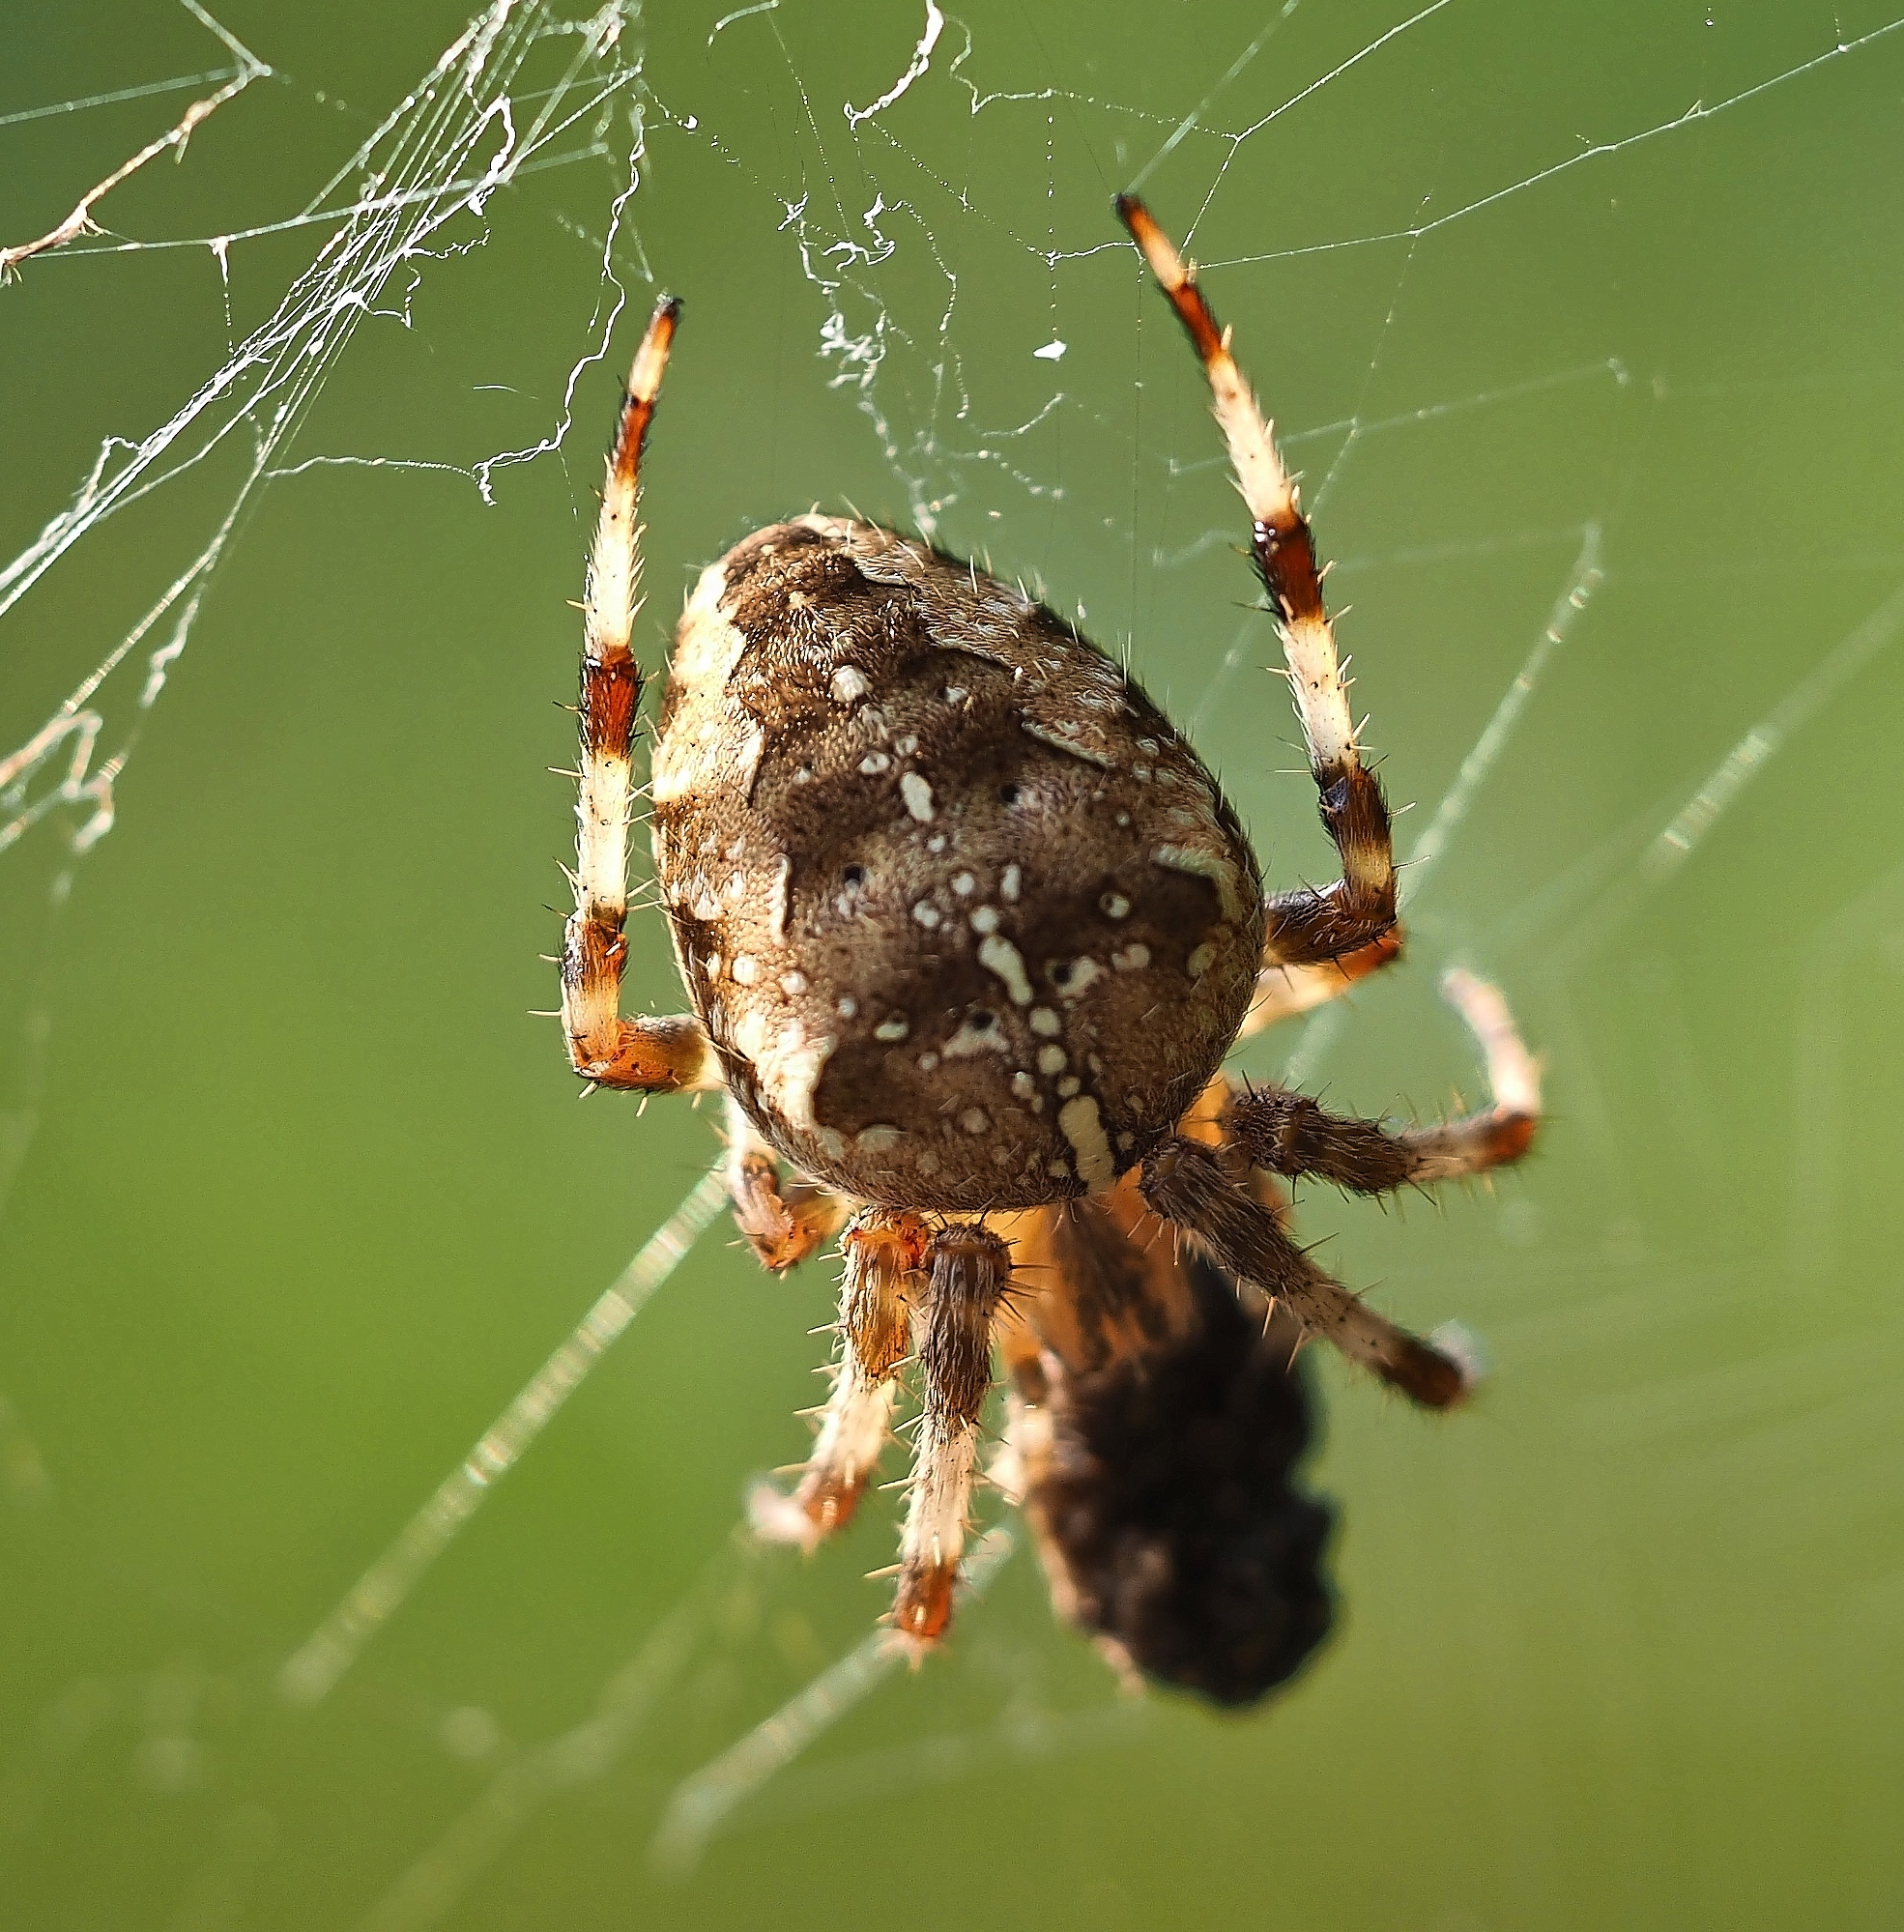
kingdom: Animalia
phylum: Arthropoda
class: Arachnida
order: Araneae
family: Araneidae
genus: Araneus
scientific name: Araneus diadematus
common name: Cross orbweaver
